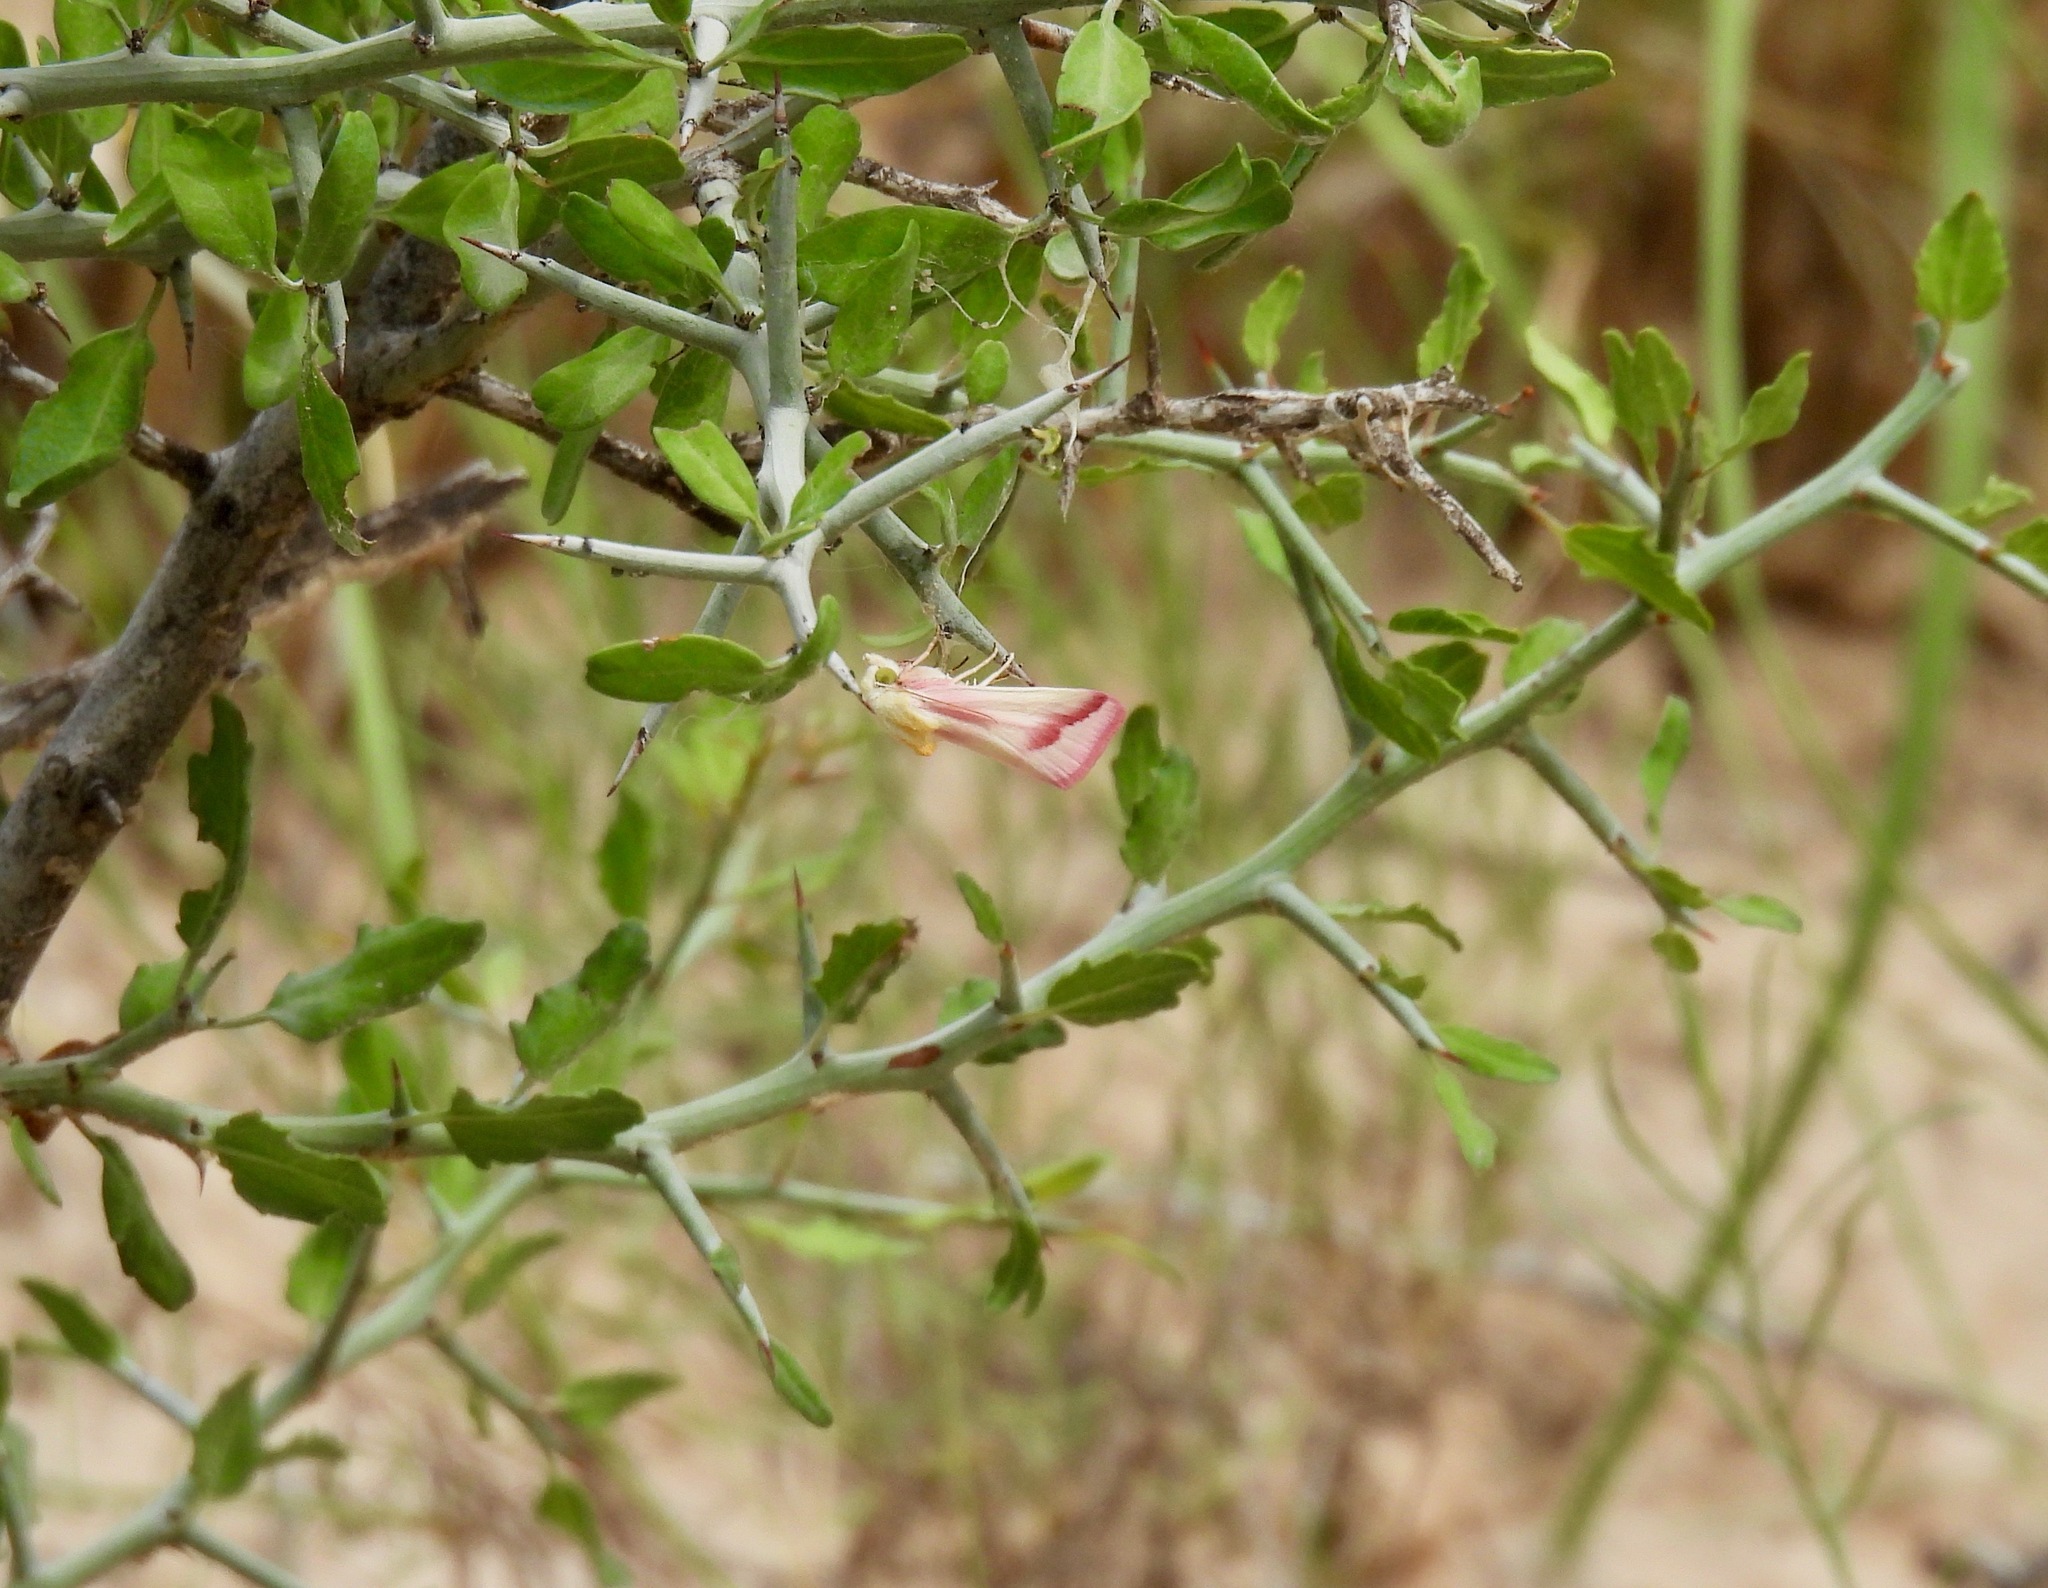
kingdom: Animalia
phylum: Arthropoda
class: Insecta
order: Lepidoptera
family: Noctuidae
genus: Schinia
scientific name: Schinia gaurae
